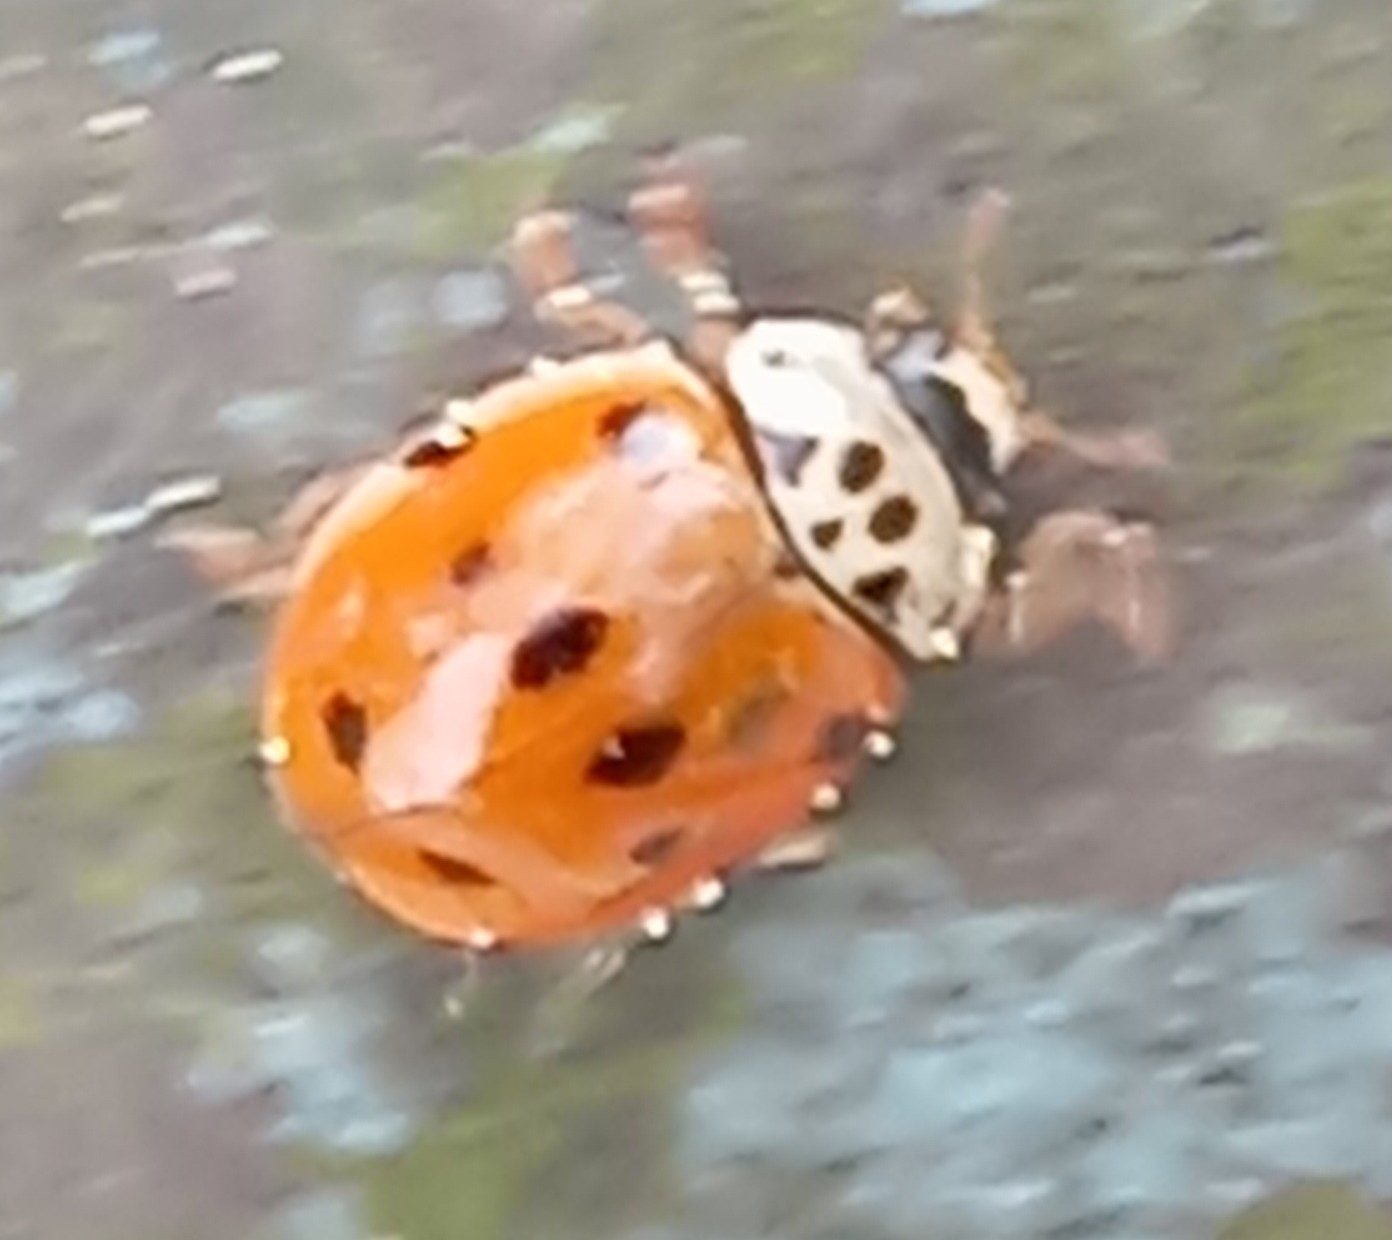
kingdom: Animalia
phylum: Arthropoda
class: Insecta
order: Coleoptera
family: Coccinellidae
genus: Adalia
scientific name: Adalia decempunctata
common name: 10-spot ladybird
